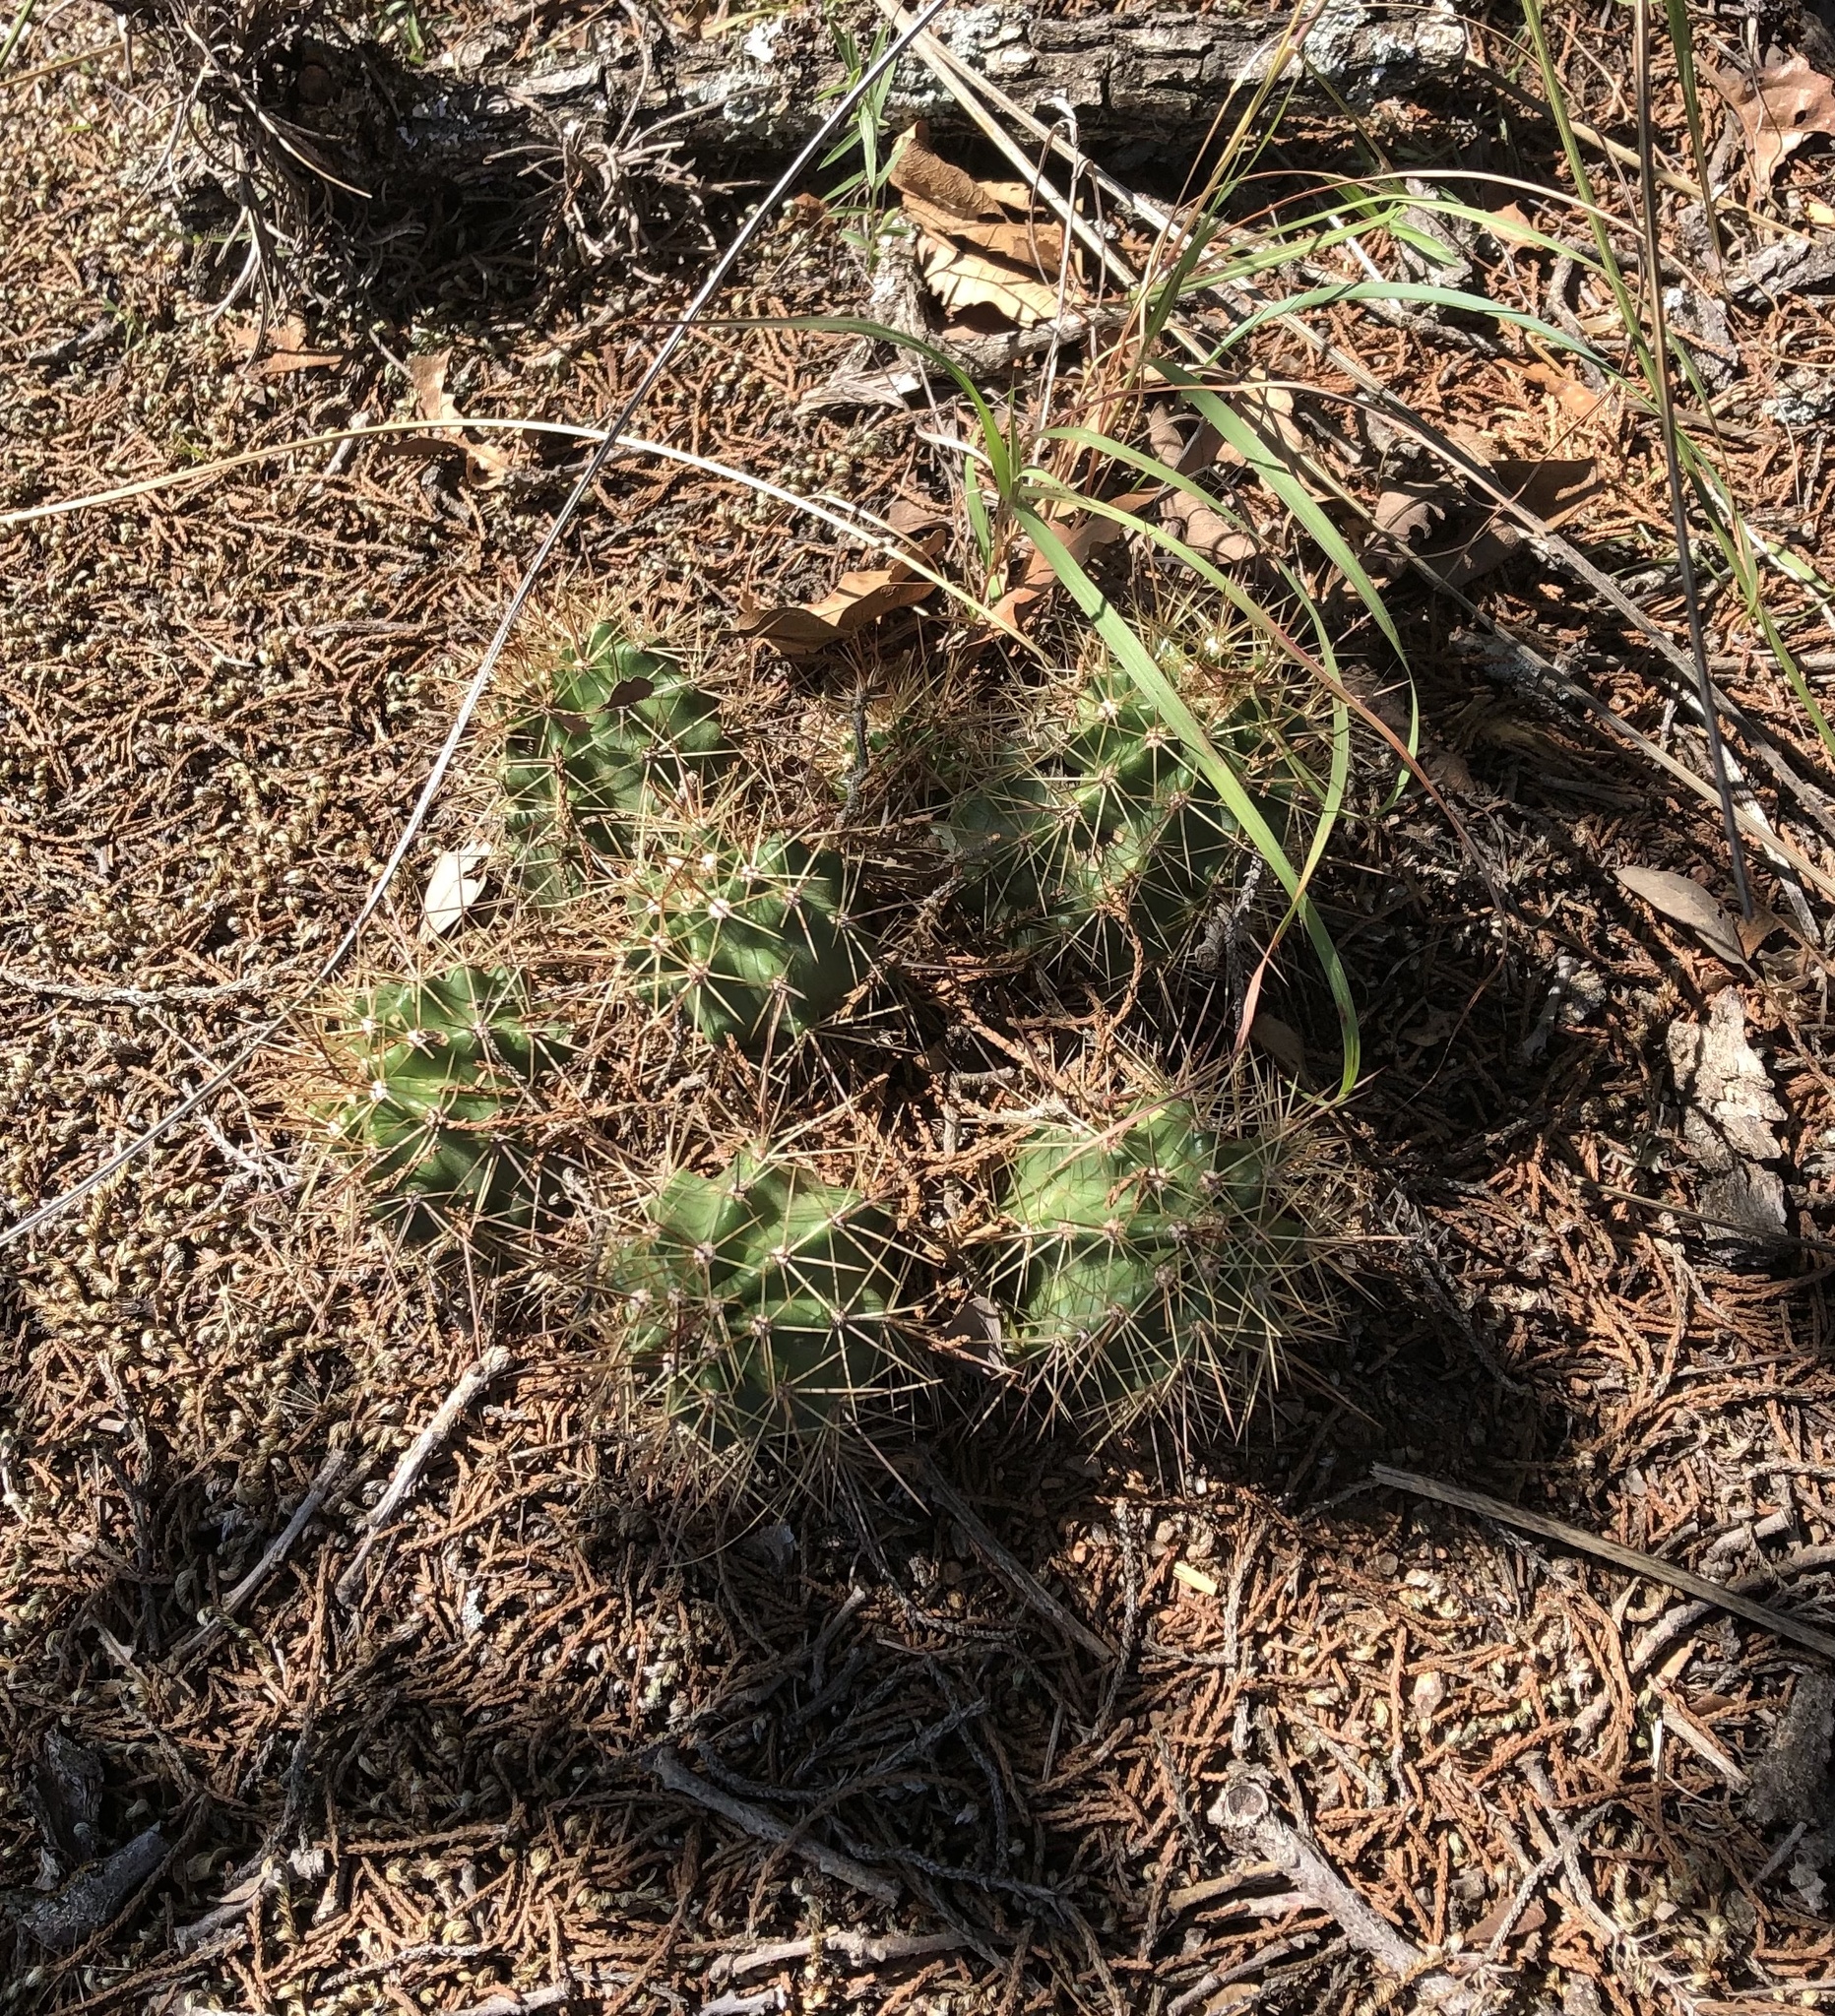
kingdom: Plantae
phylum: Tracheophyta
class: Magnoliopsida
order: Caryophyllales
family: Cactaceae
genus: Echinocereus
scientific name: Echinocereus coccineus
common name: Scarlet hedgehog cactus
